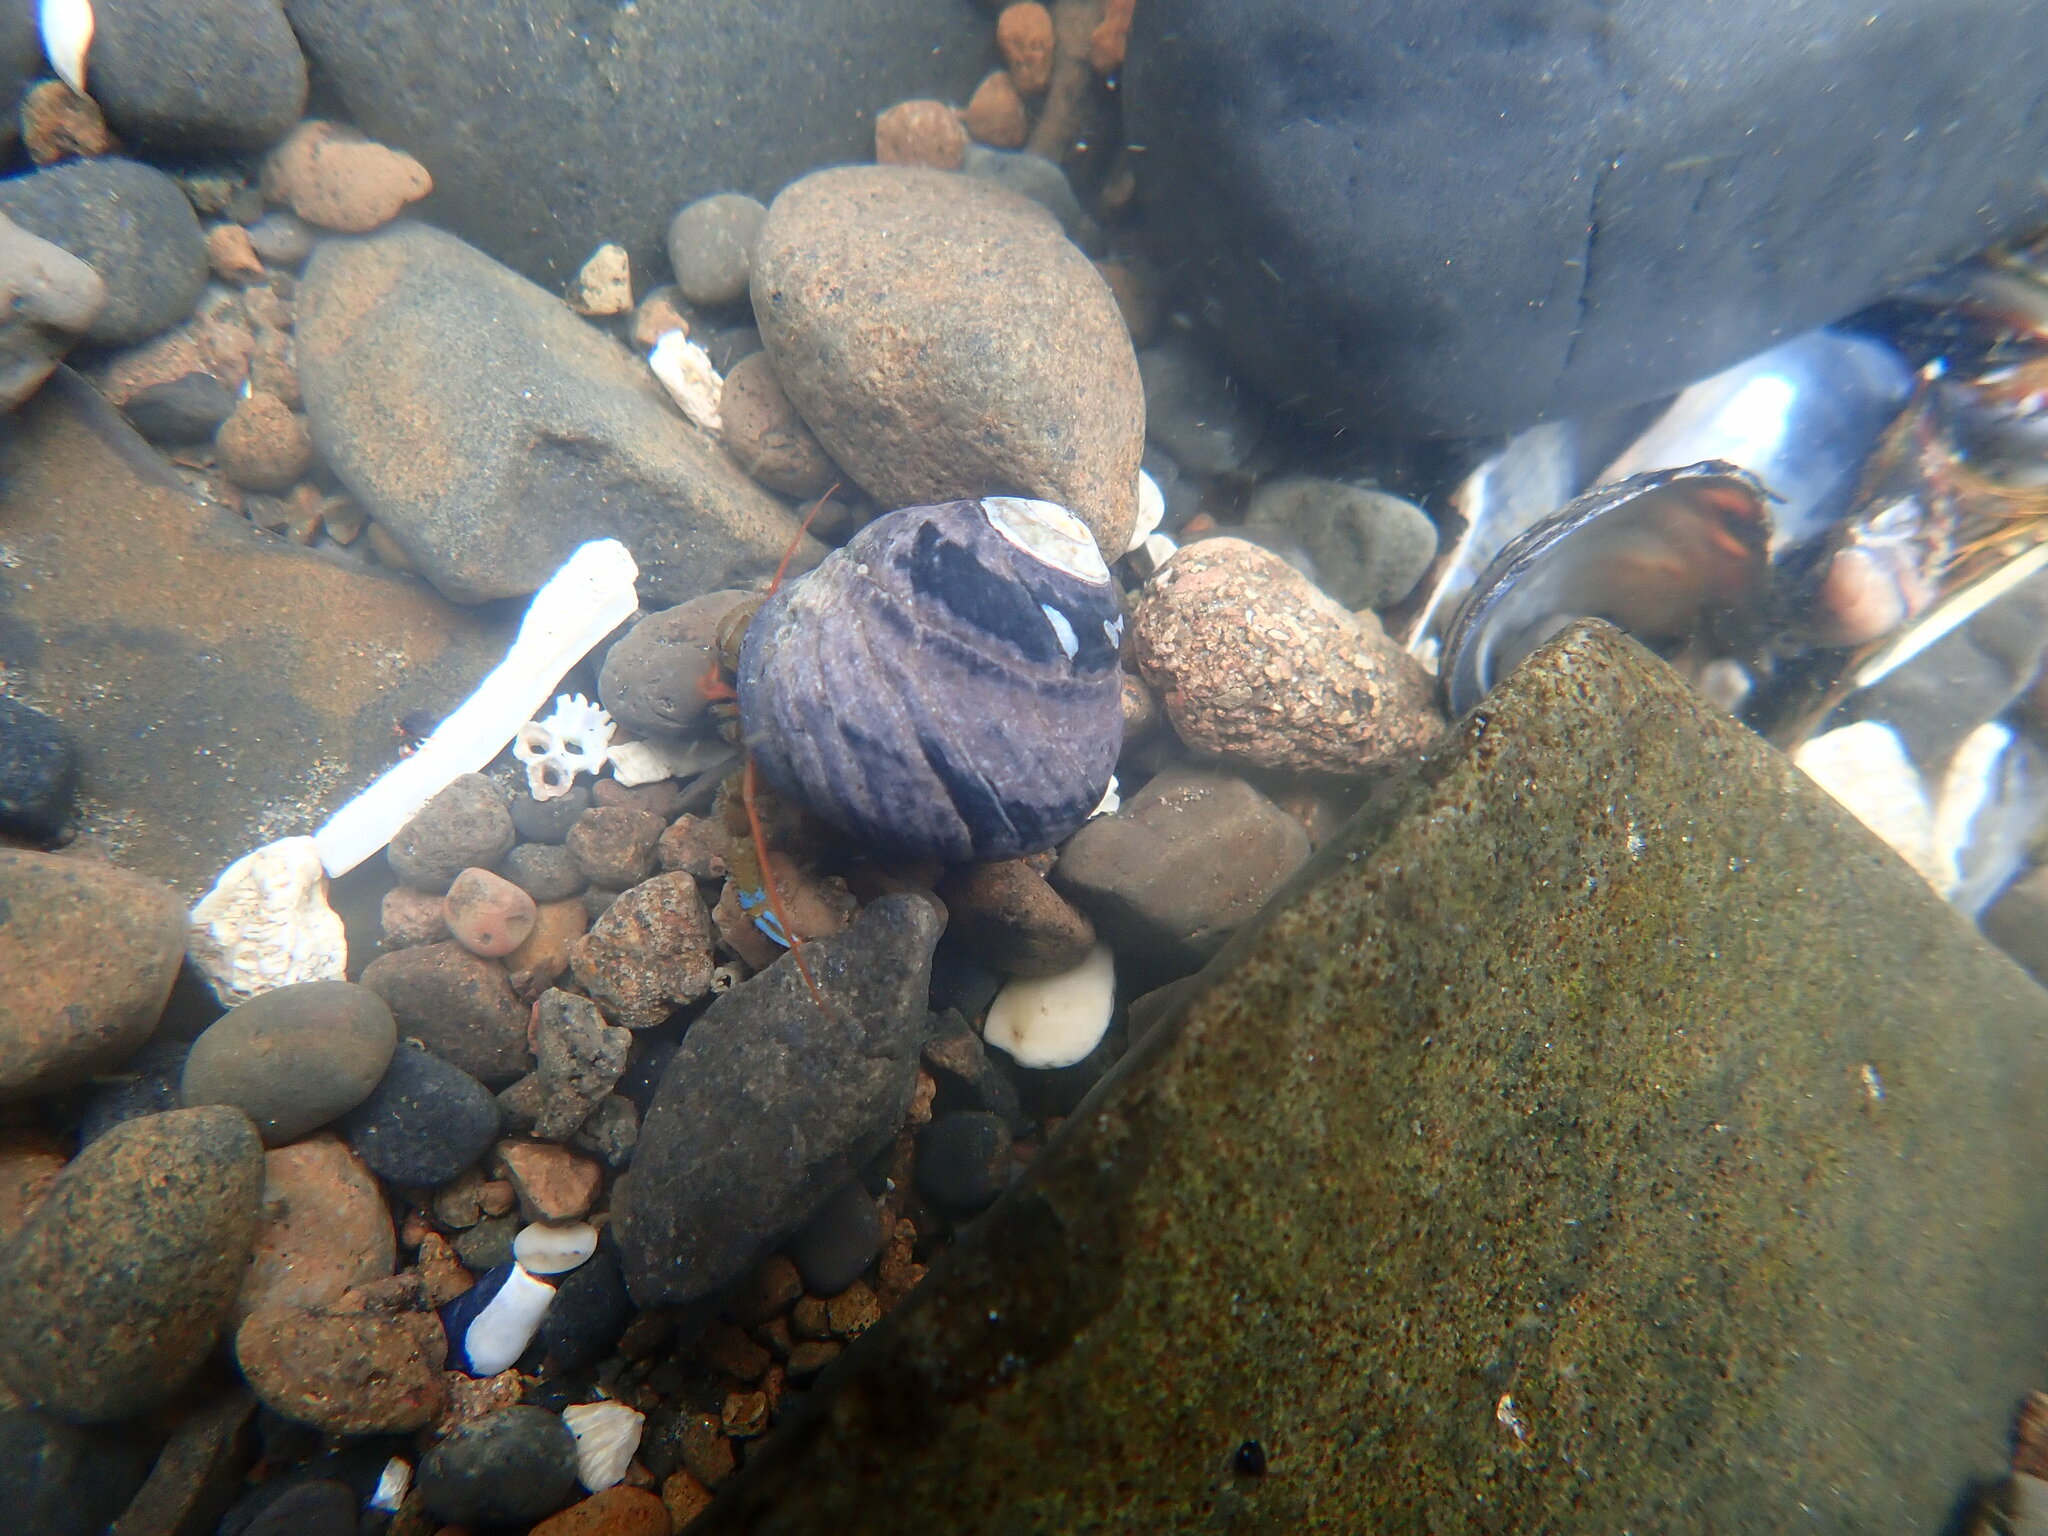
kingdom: Animalia
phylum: Arthropoda
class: Malacostraca
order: Decapoda
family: Paguridae
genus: Pagurus
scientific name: Pagurus samuelis
